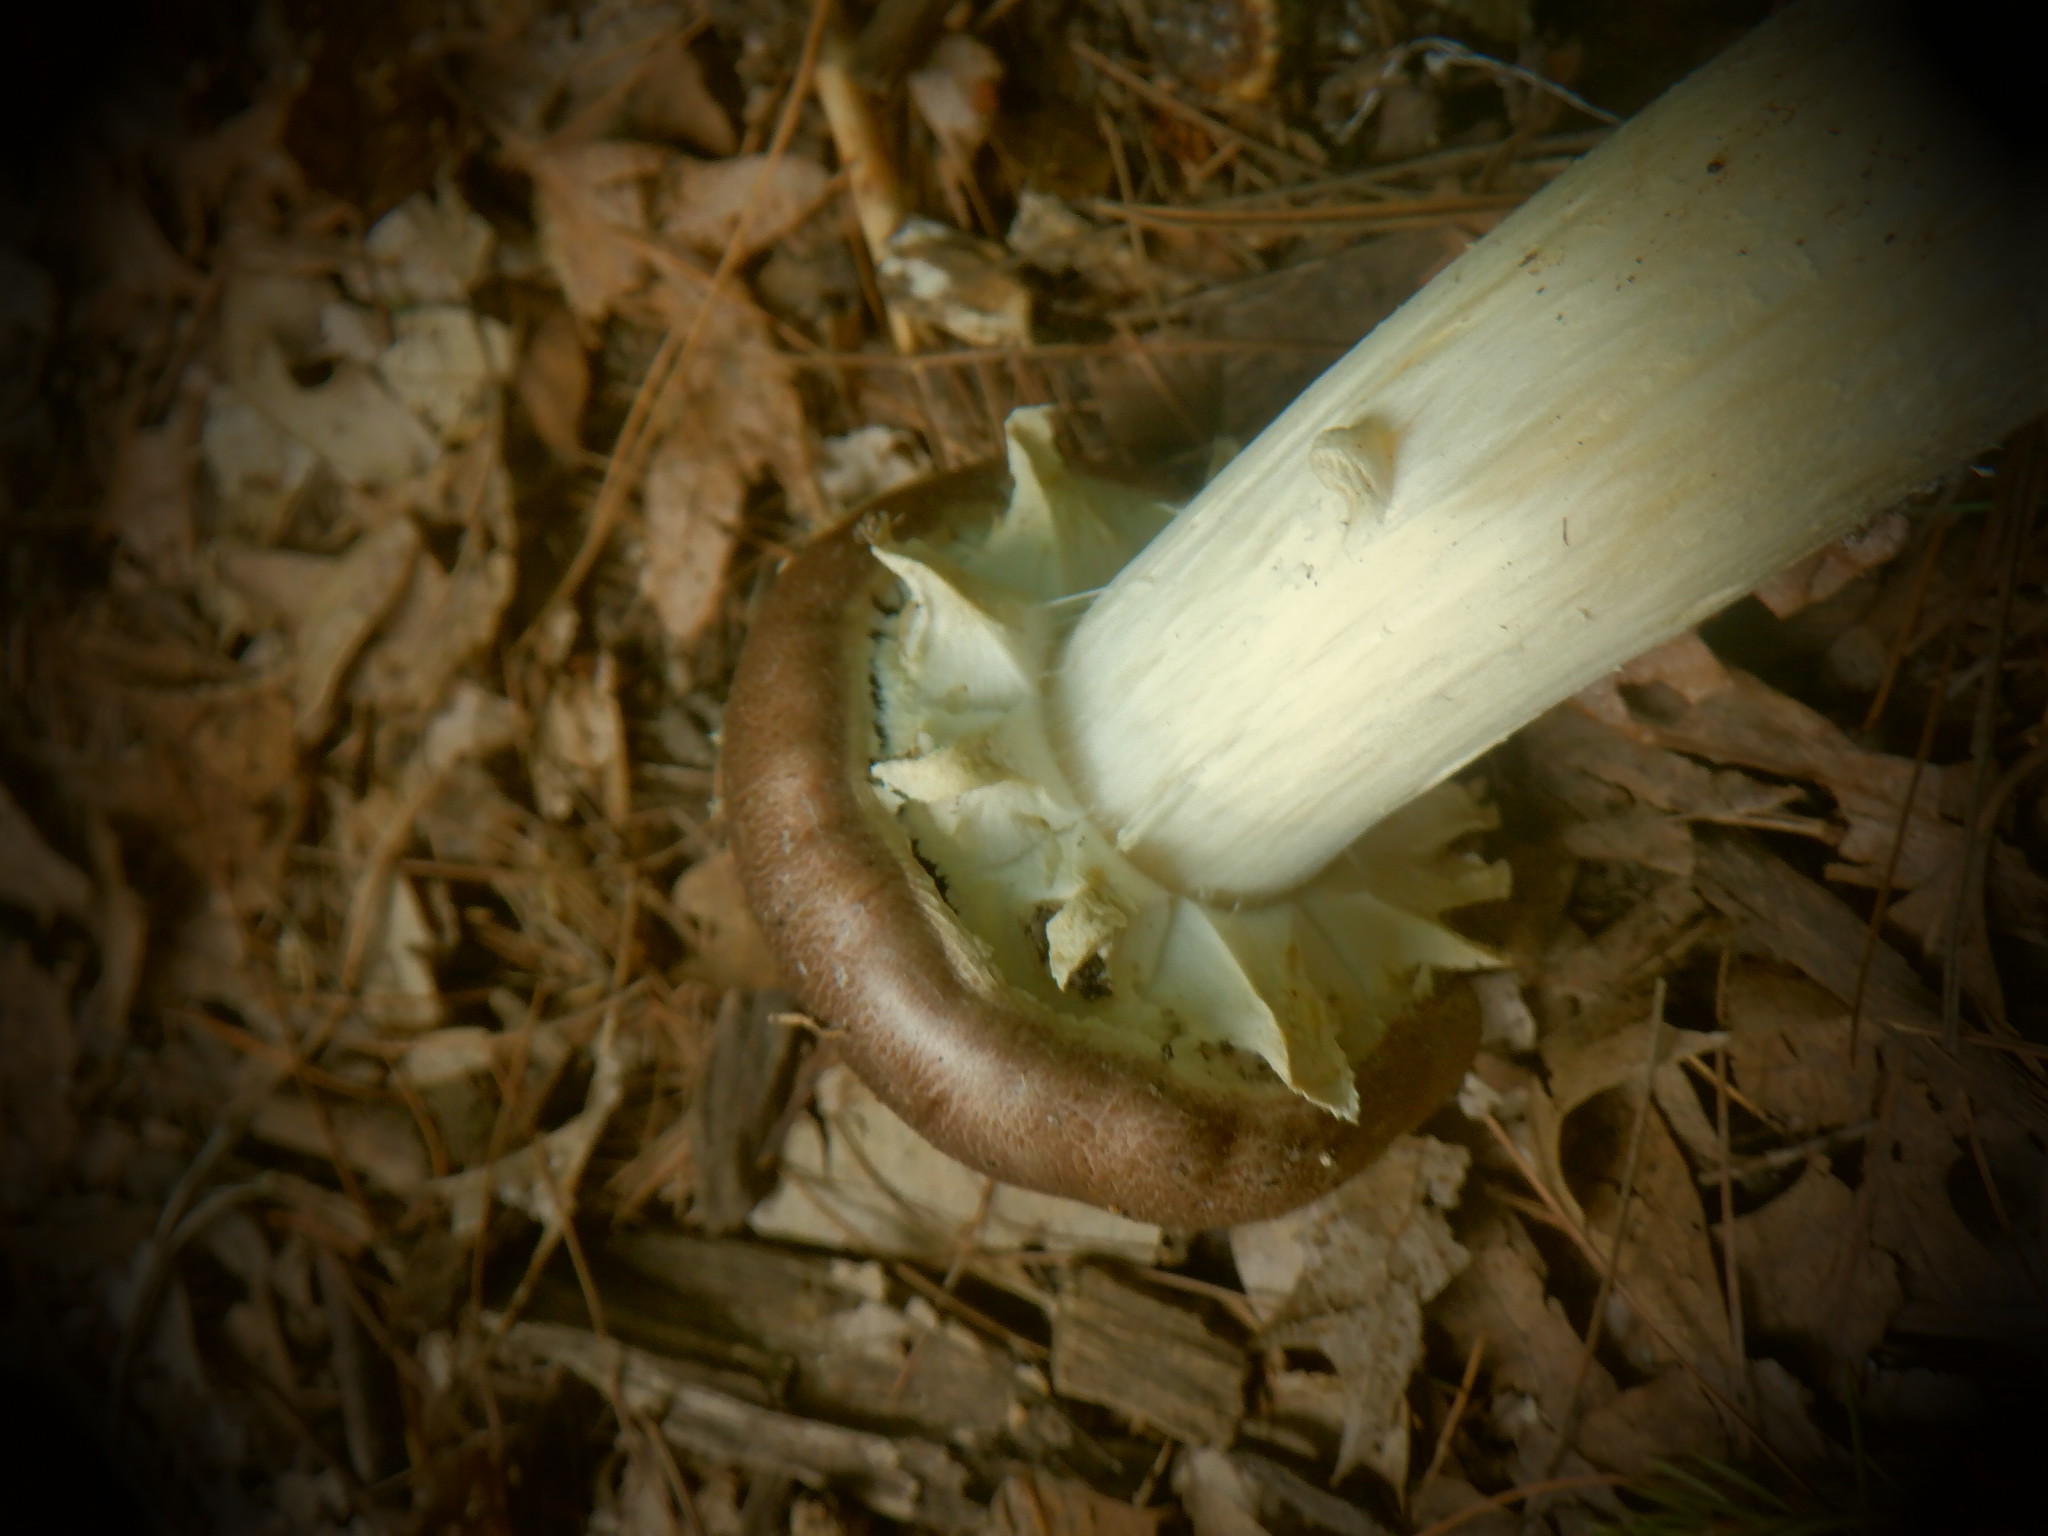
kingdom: Fungi
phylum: Basidiomycota
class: Agaricomycetes
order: Agaricales
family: Strophariaceae
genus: Stropharia
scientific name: Stropharia rugosoannulata
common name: Wine roundhead
